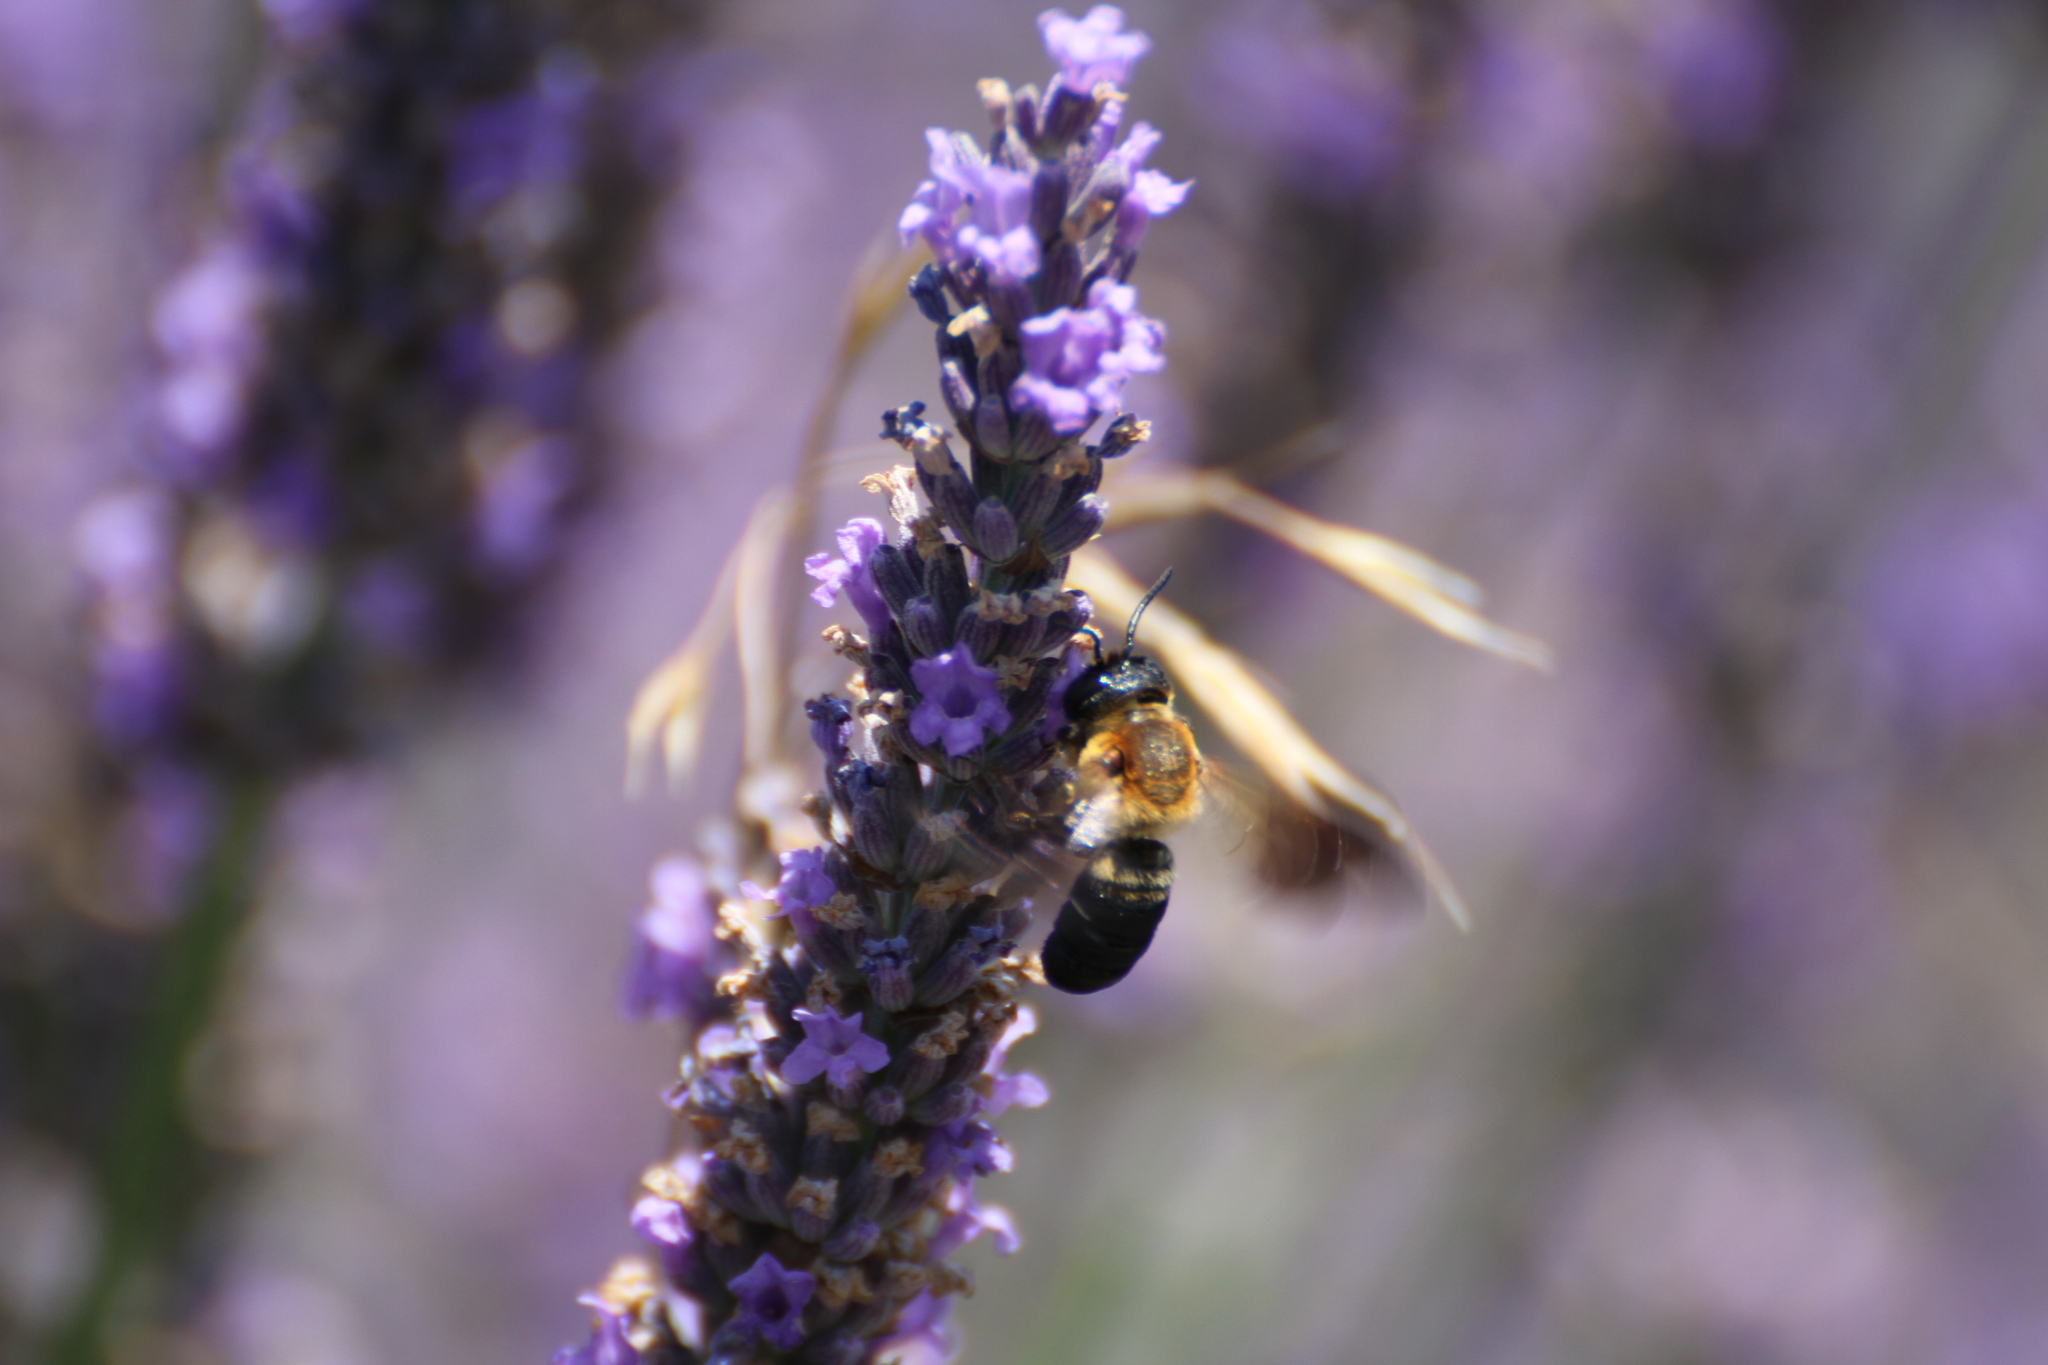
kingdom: Animalia
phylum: Arthropoda
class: Insecta
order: Hymenoptera
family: Megachilidae
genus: Megachile
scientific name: Megachile sculpturalis
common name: Sculptured resin bee
